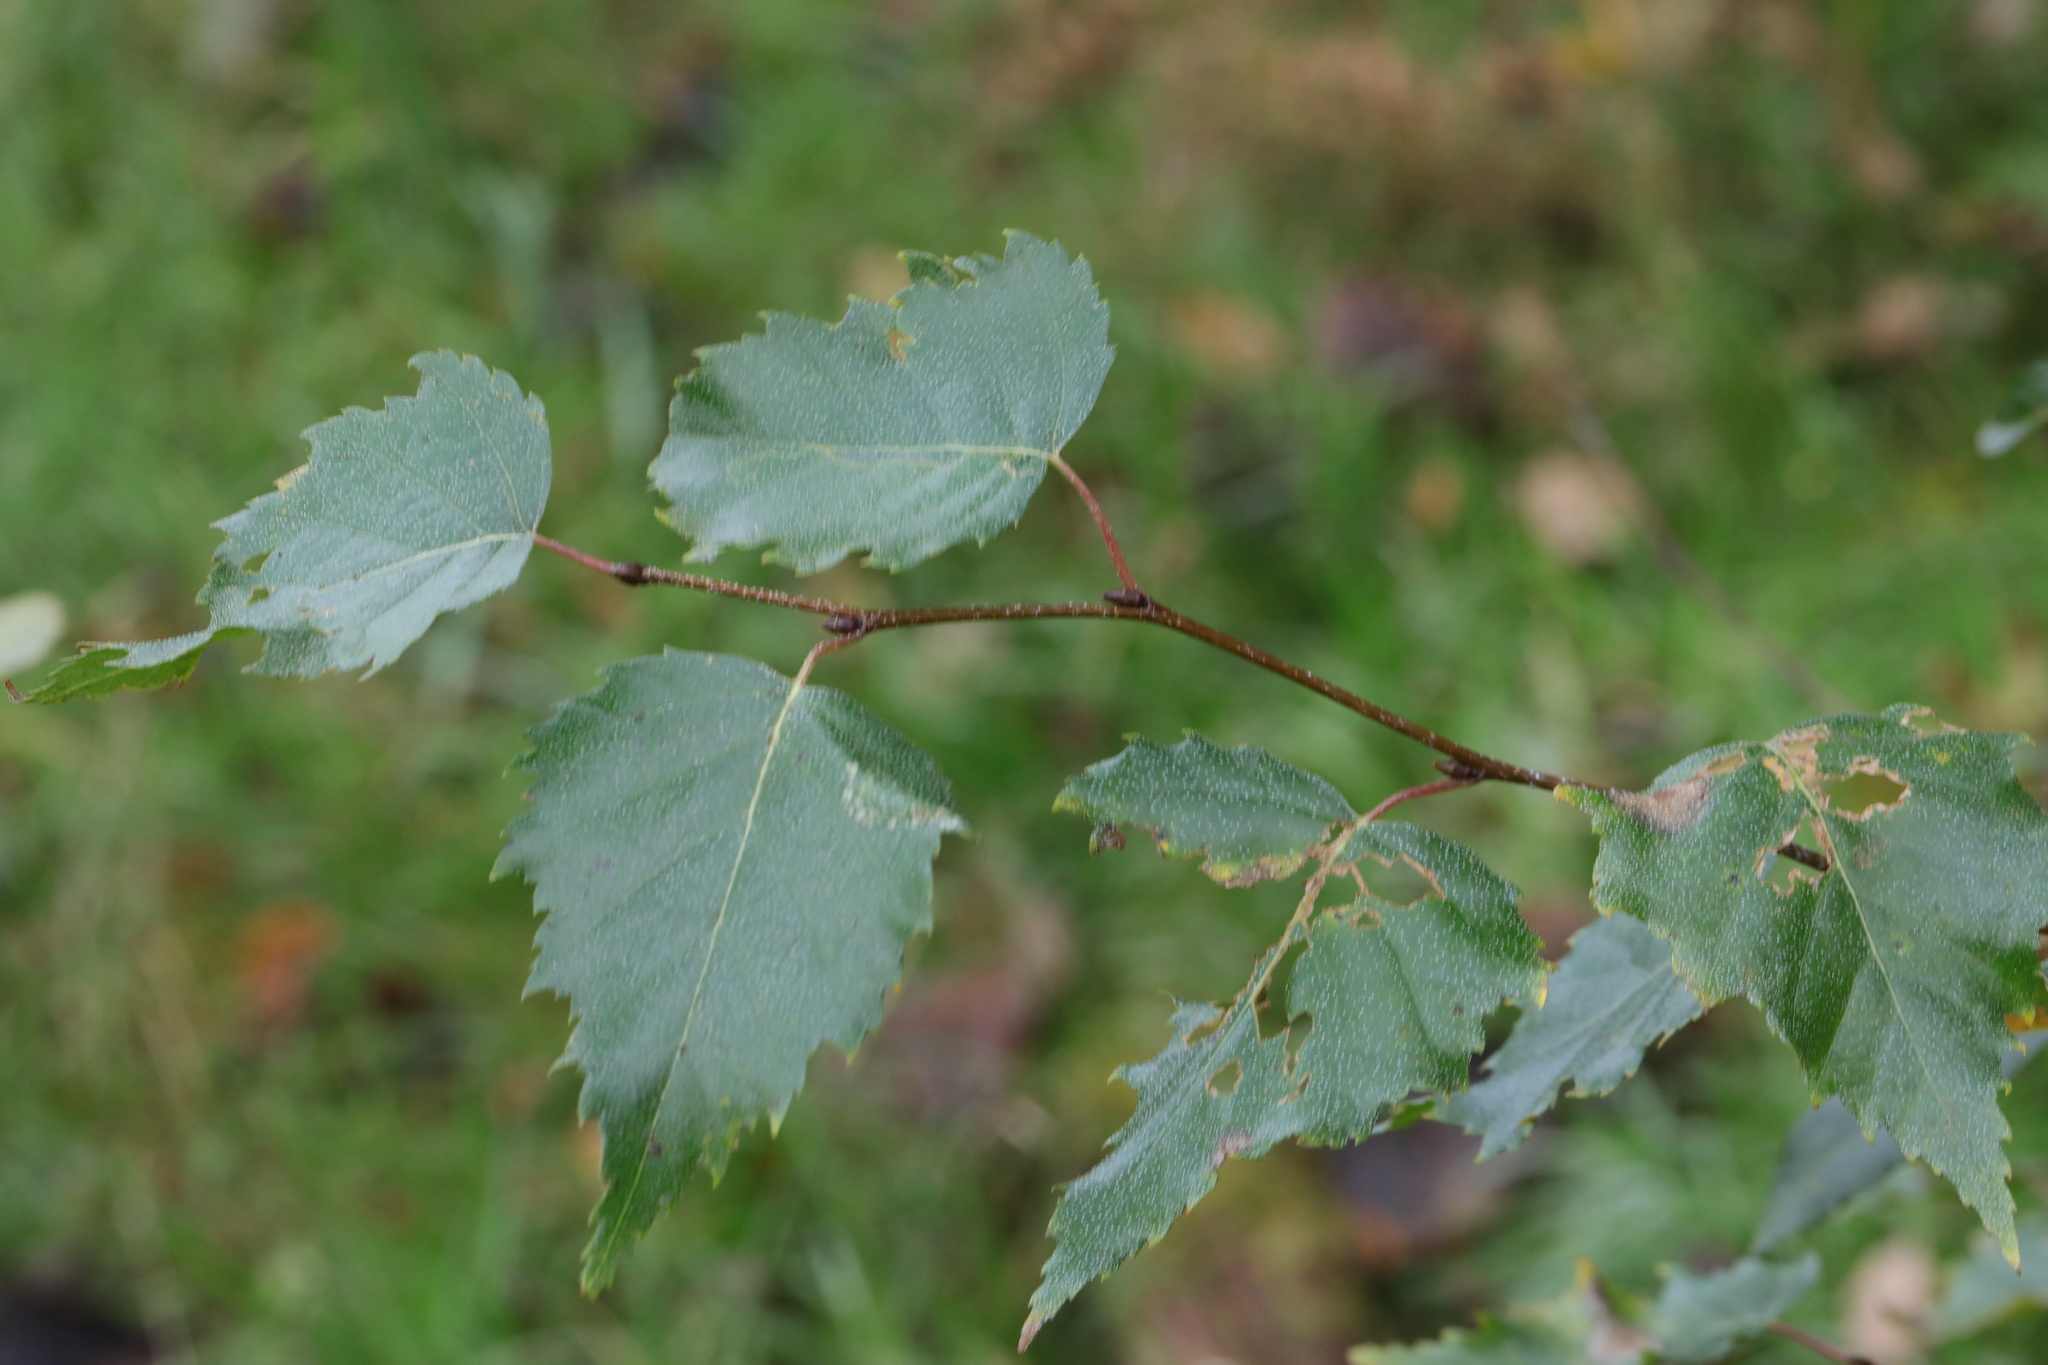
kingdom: Plantae
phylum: Tracheophyta
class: Magnoliopsida
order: Fagales
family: Betulaceae
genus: Betula
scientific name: Betula pendula
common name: Silver birch
